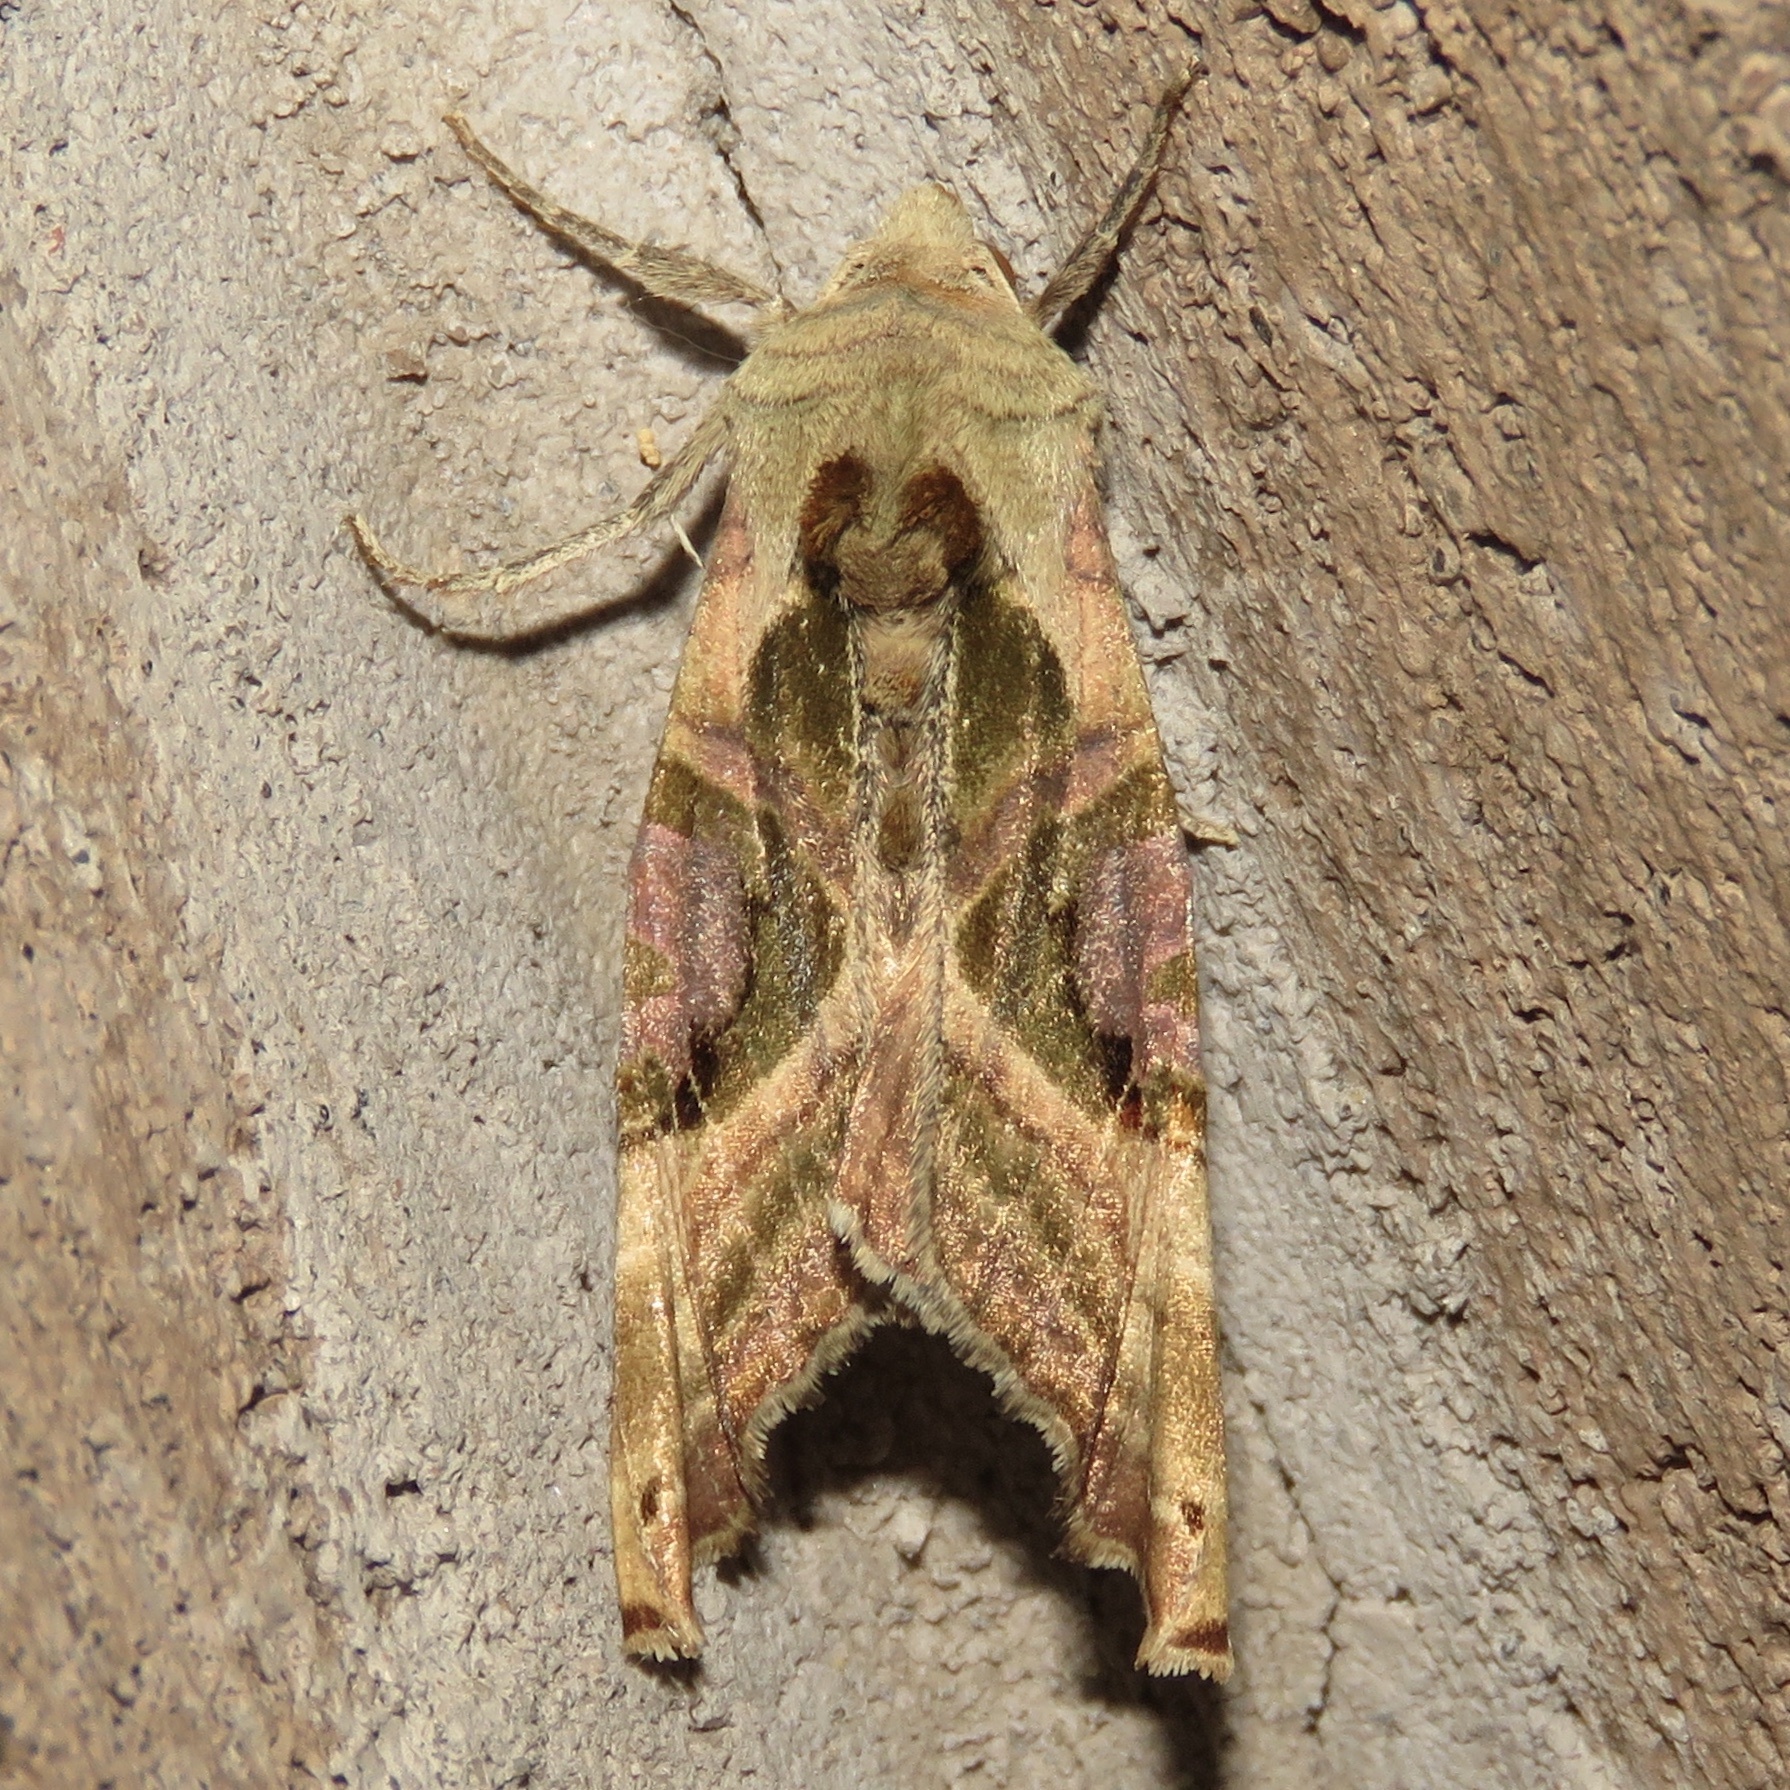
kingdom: Animalia
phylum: Arthropoda
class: Insecta
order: Lepidoptera
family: Noctuidae
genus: Phlogophora
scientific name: Phlogophora iris
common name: Olive angle shades
